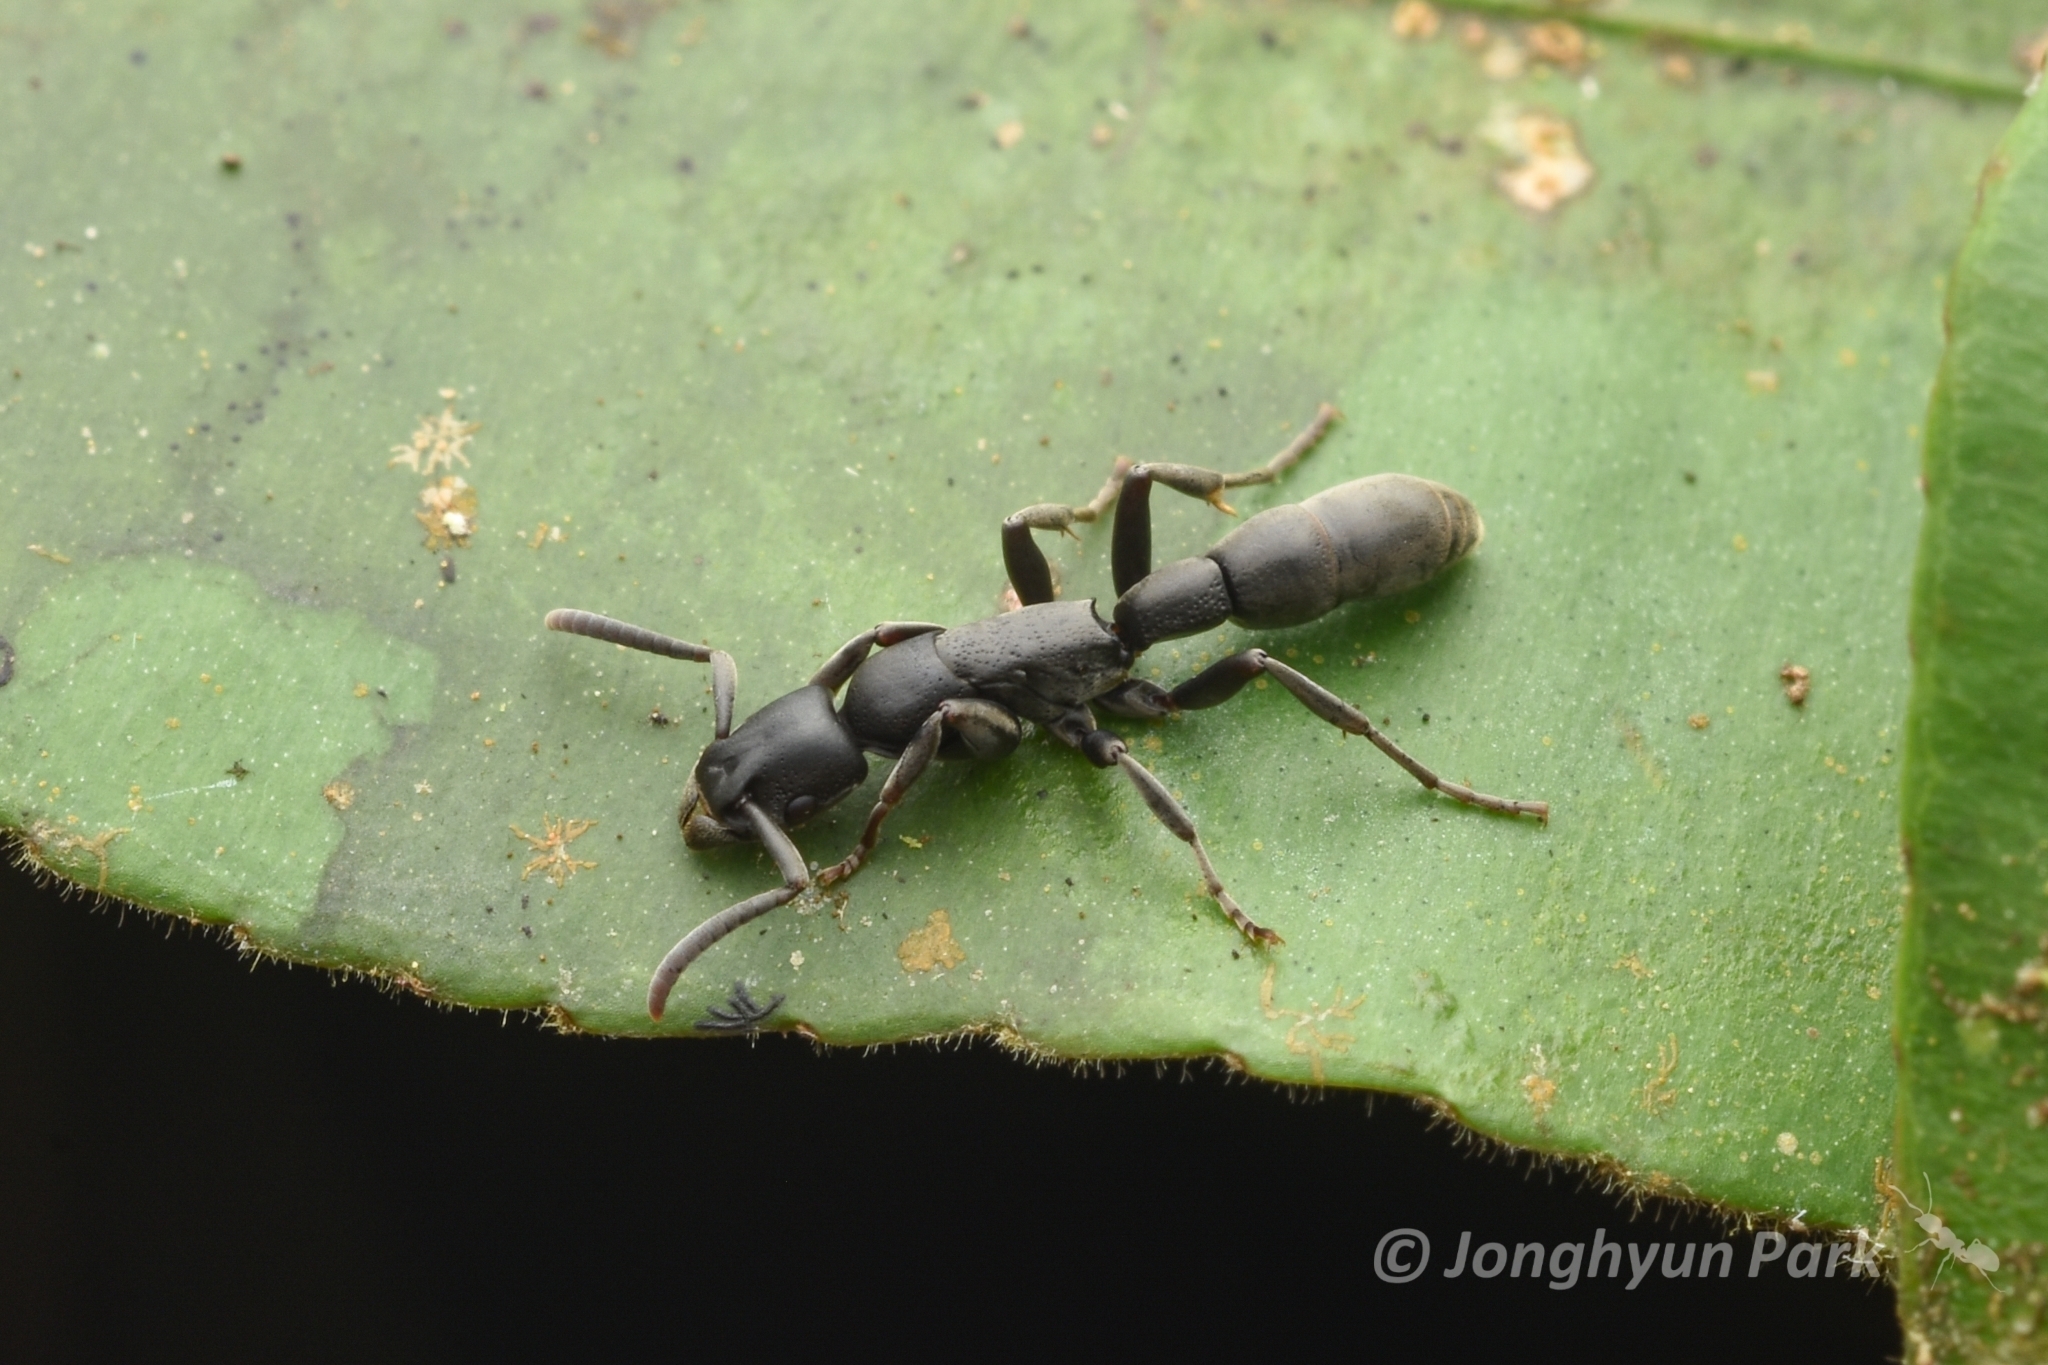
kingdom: Animalia
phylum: Arthropoda
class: Insecta
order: Hymenoptera
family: Formicidae
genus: Platythyrea
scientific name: Platythyrea angusta
